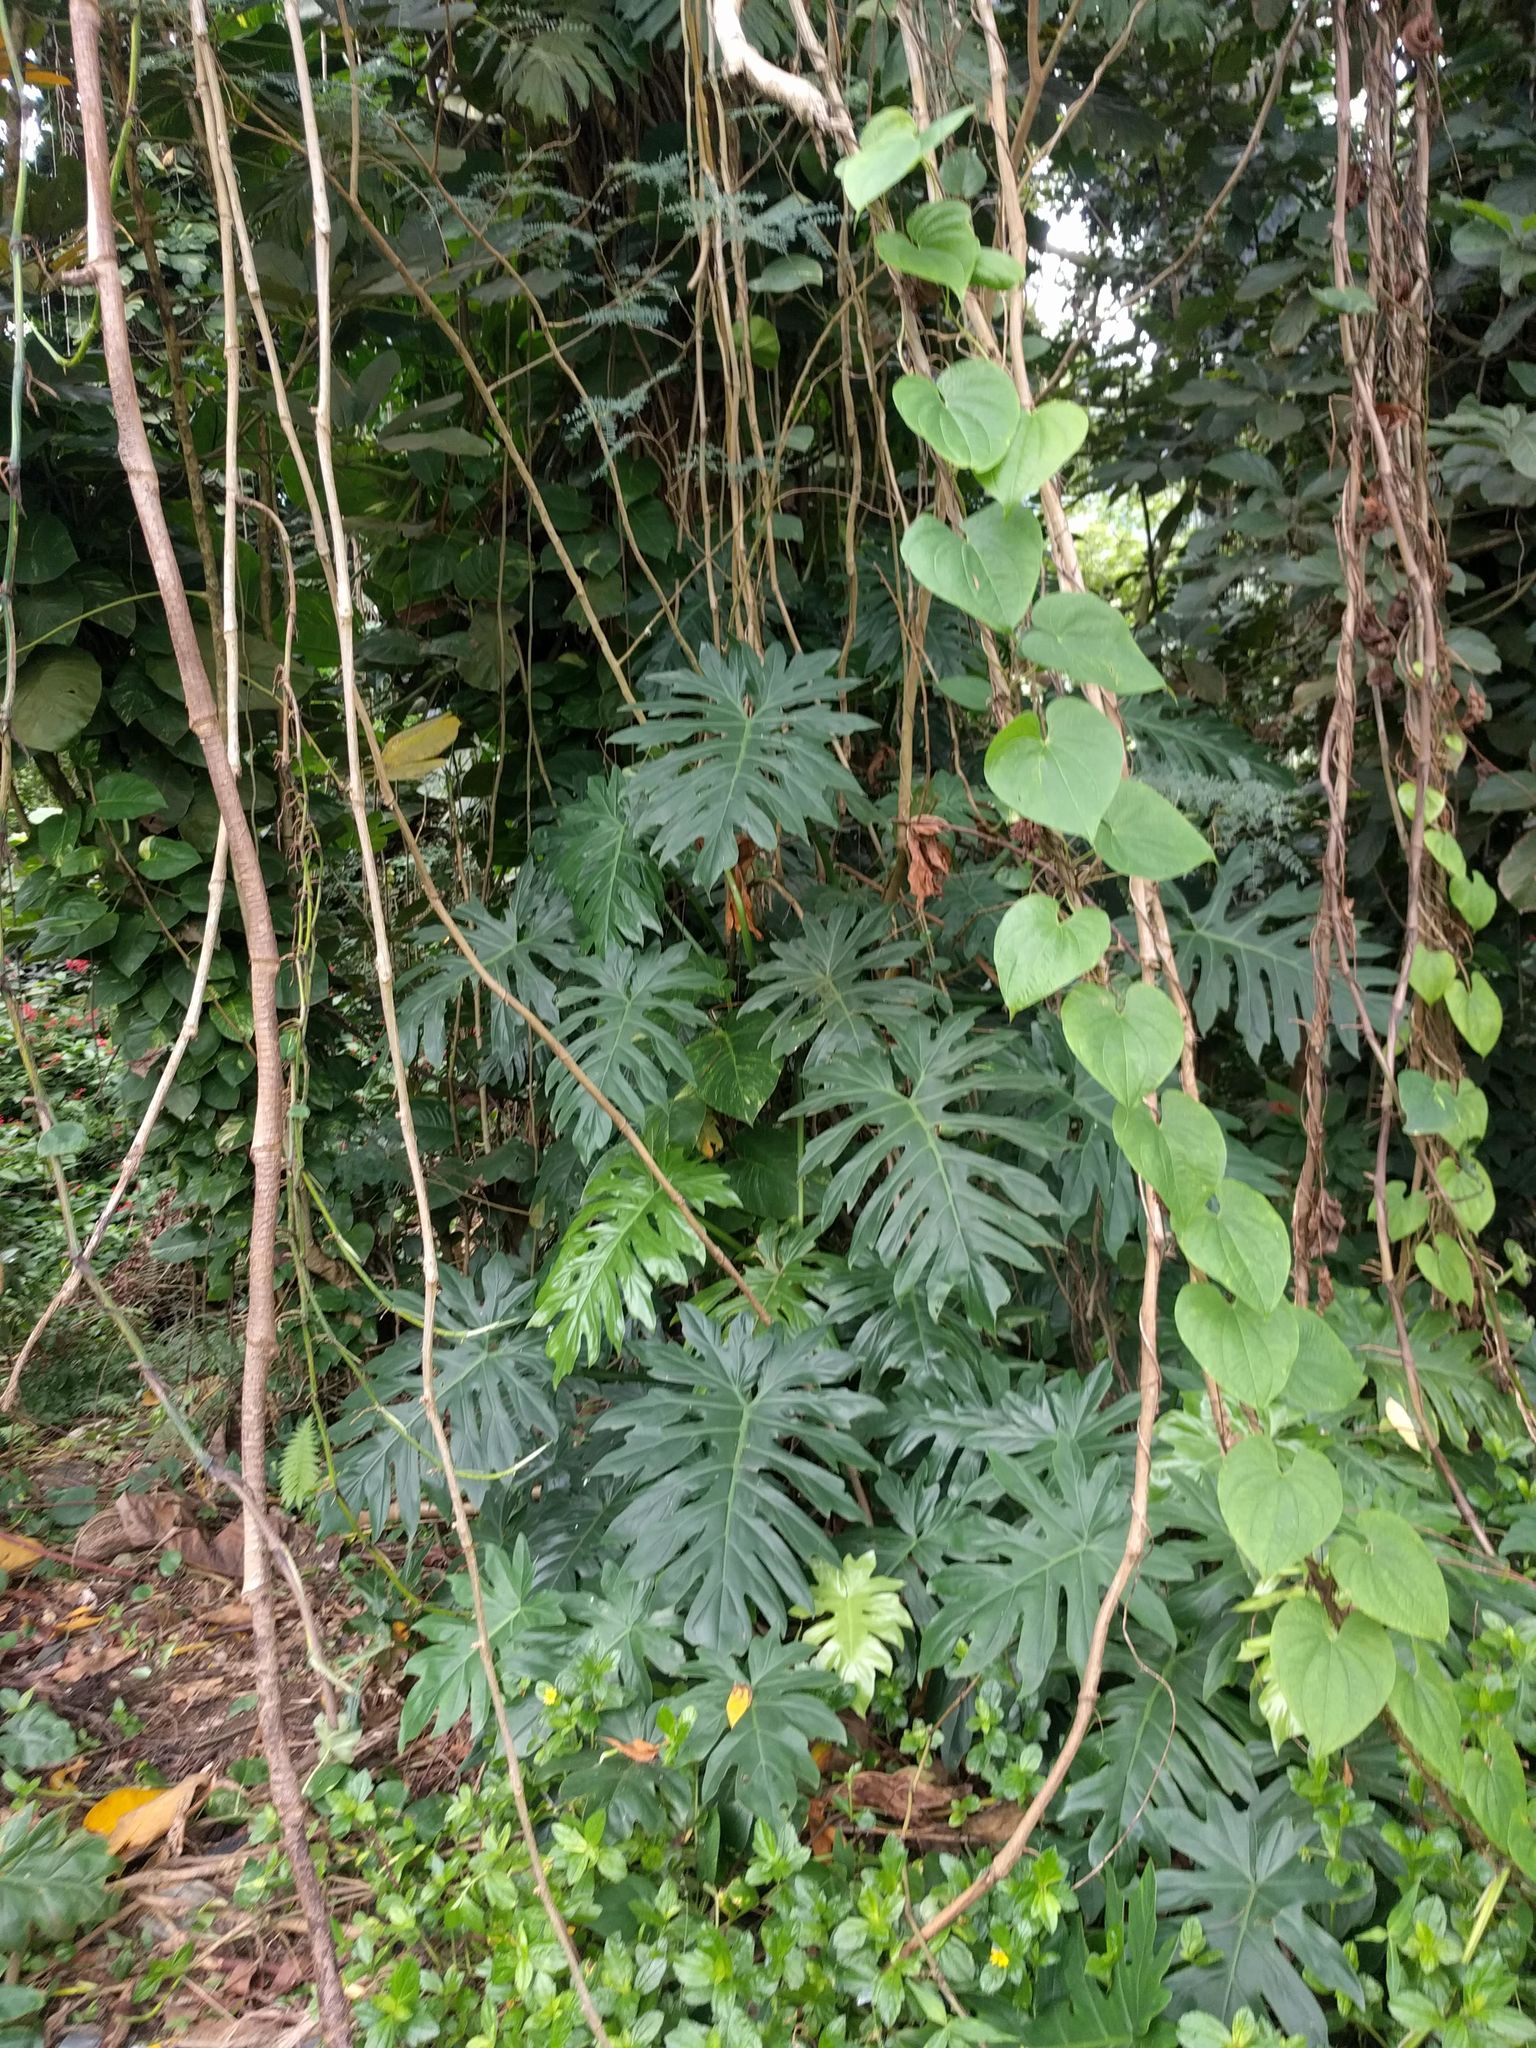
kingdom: Plantae
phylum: Tracheophyta
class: Liliopsida
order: Alismatales
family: Araceae
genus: Philodendron
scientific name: Philodendron radiatum
